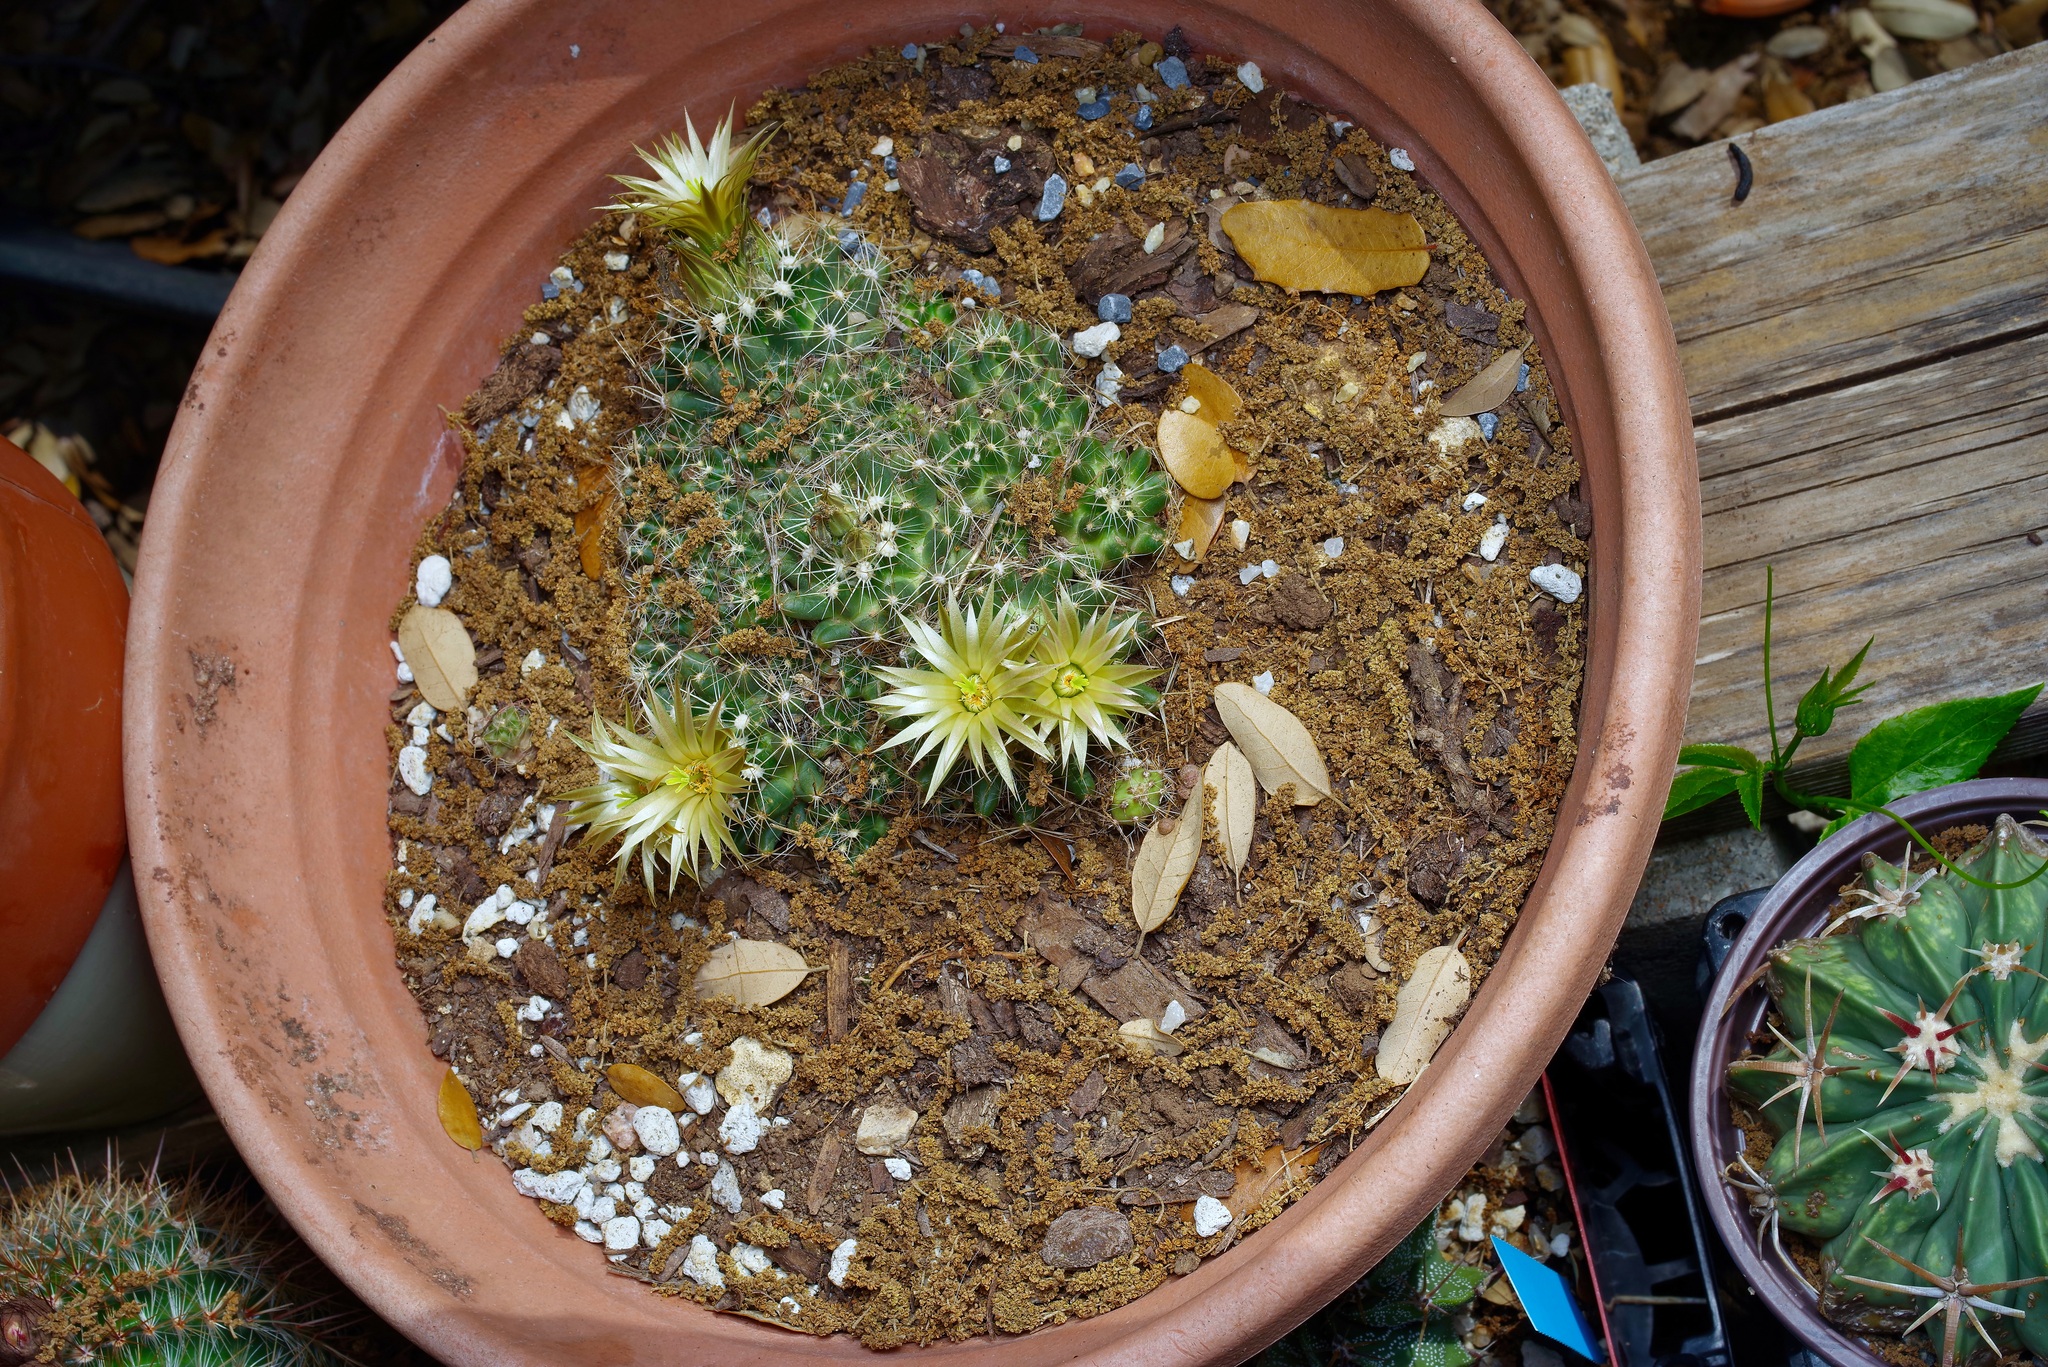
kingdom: Plantae
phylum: Tracheophyta
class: Magnoliopsida
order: Caryophyllales
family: Cactaceae
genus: Pelecyphora
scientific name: Pelecyphora missouriensis
